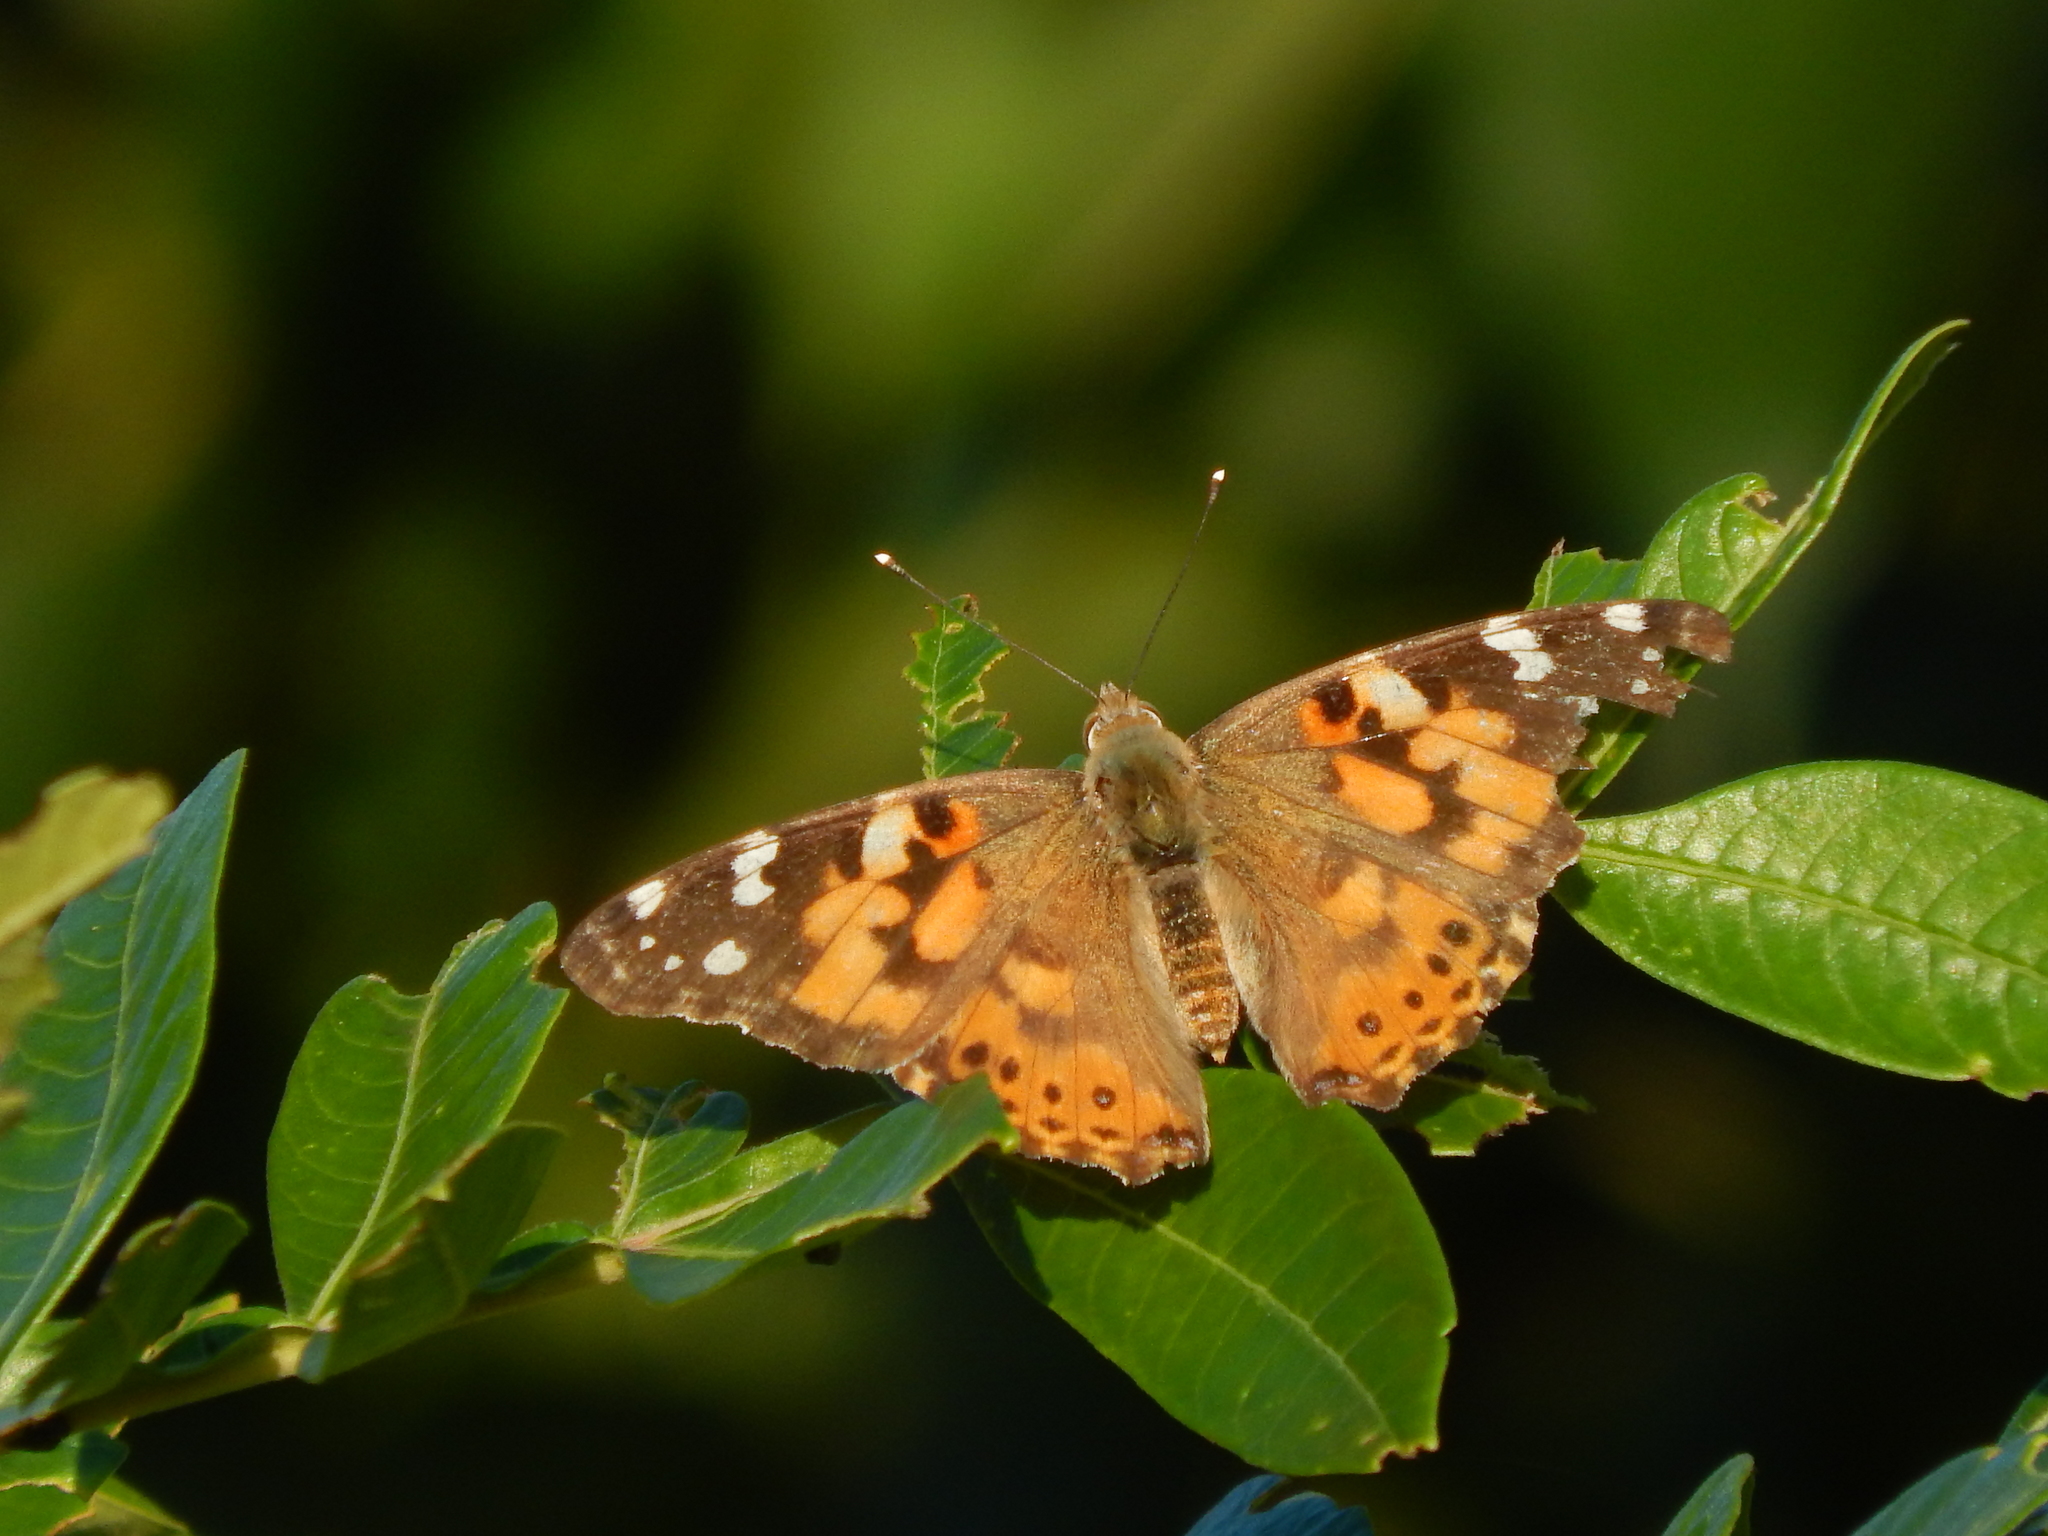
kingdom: Animalia
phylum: Arthropoda
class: Insecta
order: Lepidoptera
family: Nymphalidae
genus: Vanessa
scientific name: Vanessa cardui
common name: Painted lady
